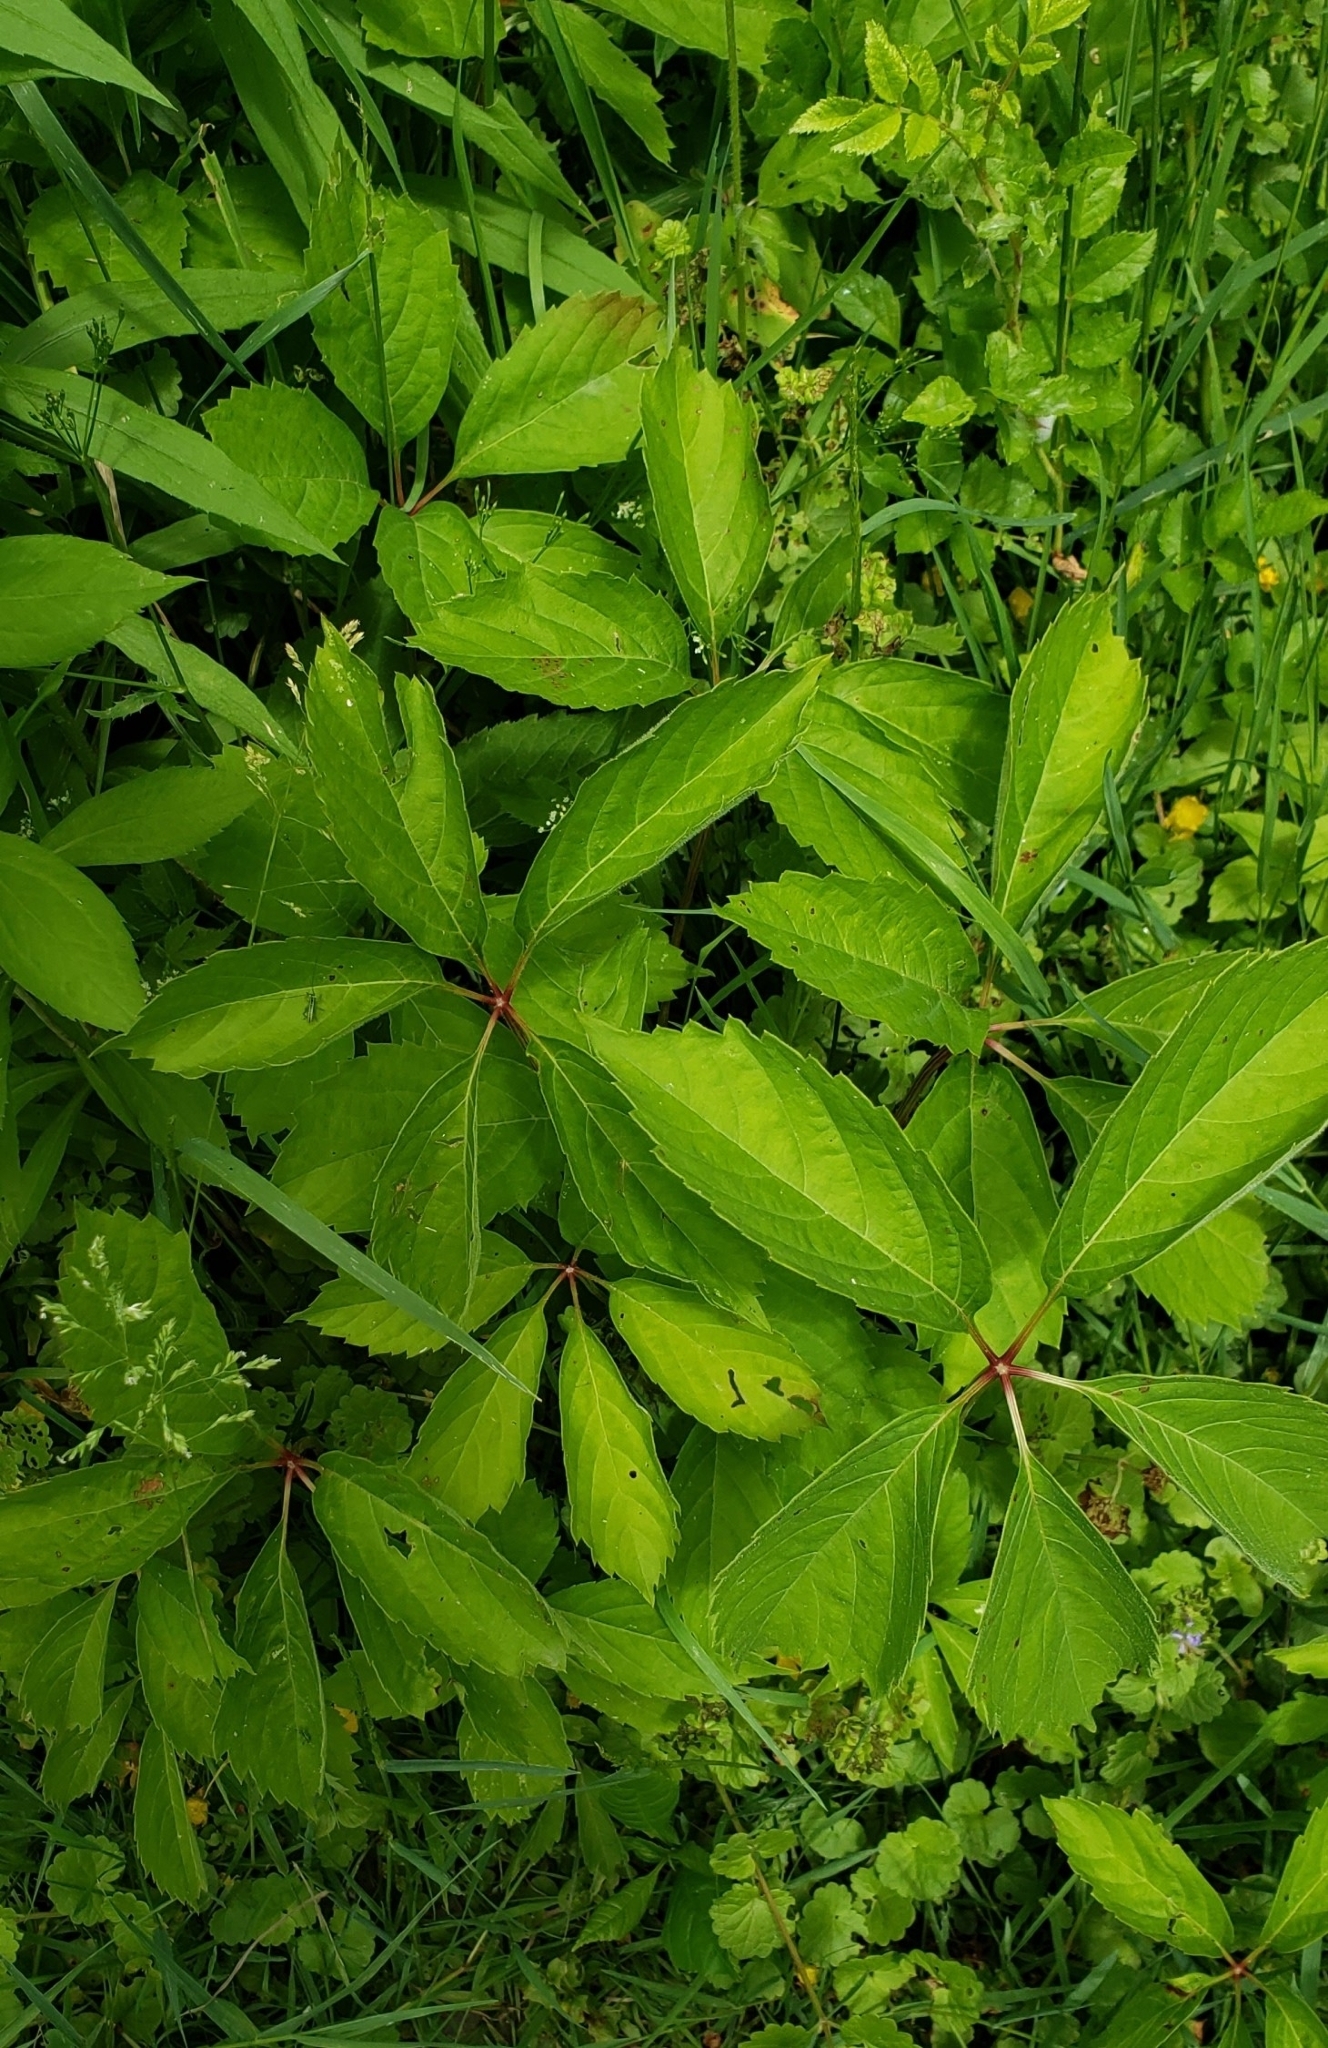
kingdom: Plantae
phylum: Tracheophyta
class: Magnoliopsida
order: Vitales
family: Vitaceae
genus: Parthenocissus
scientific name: Parthenocissus quinquefolia
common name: Virginia-creeper
